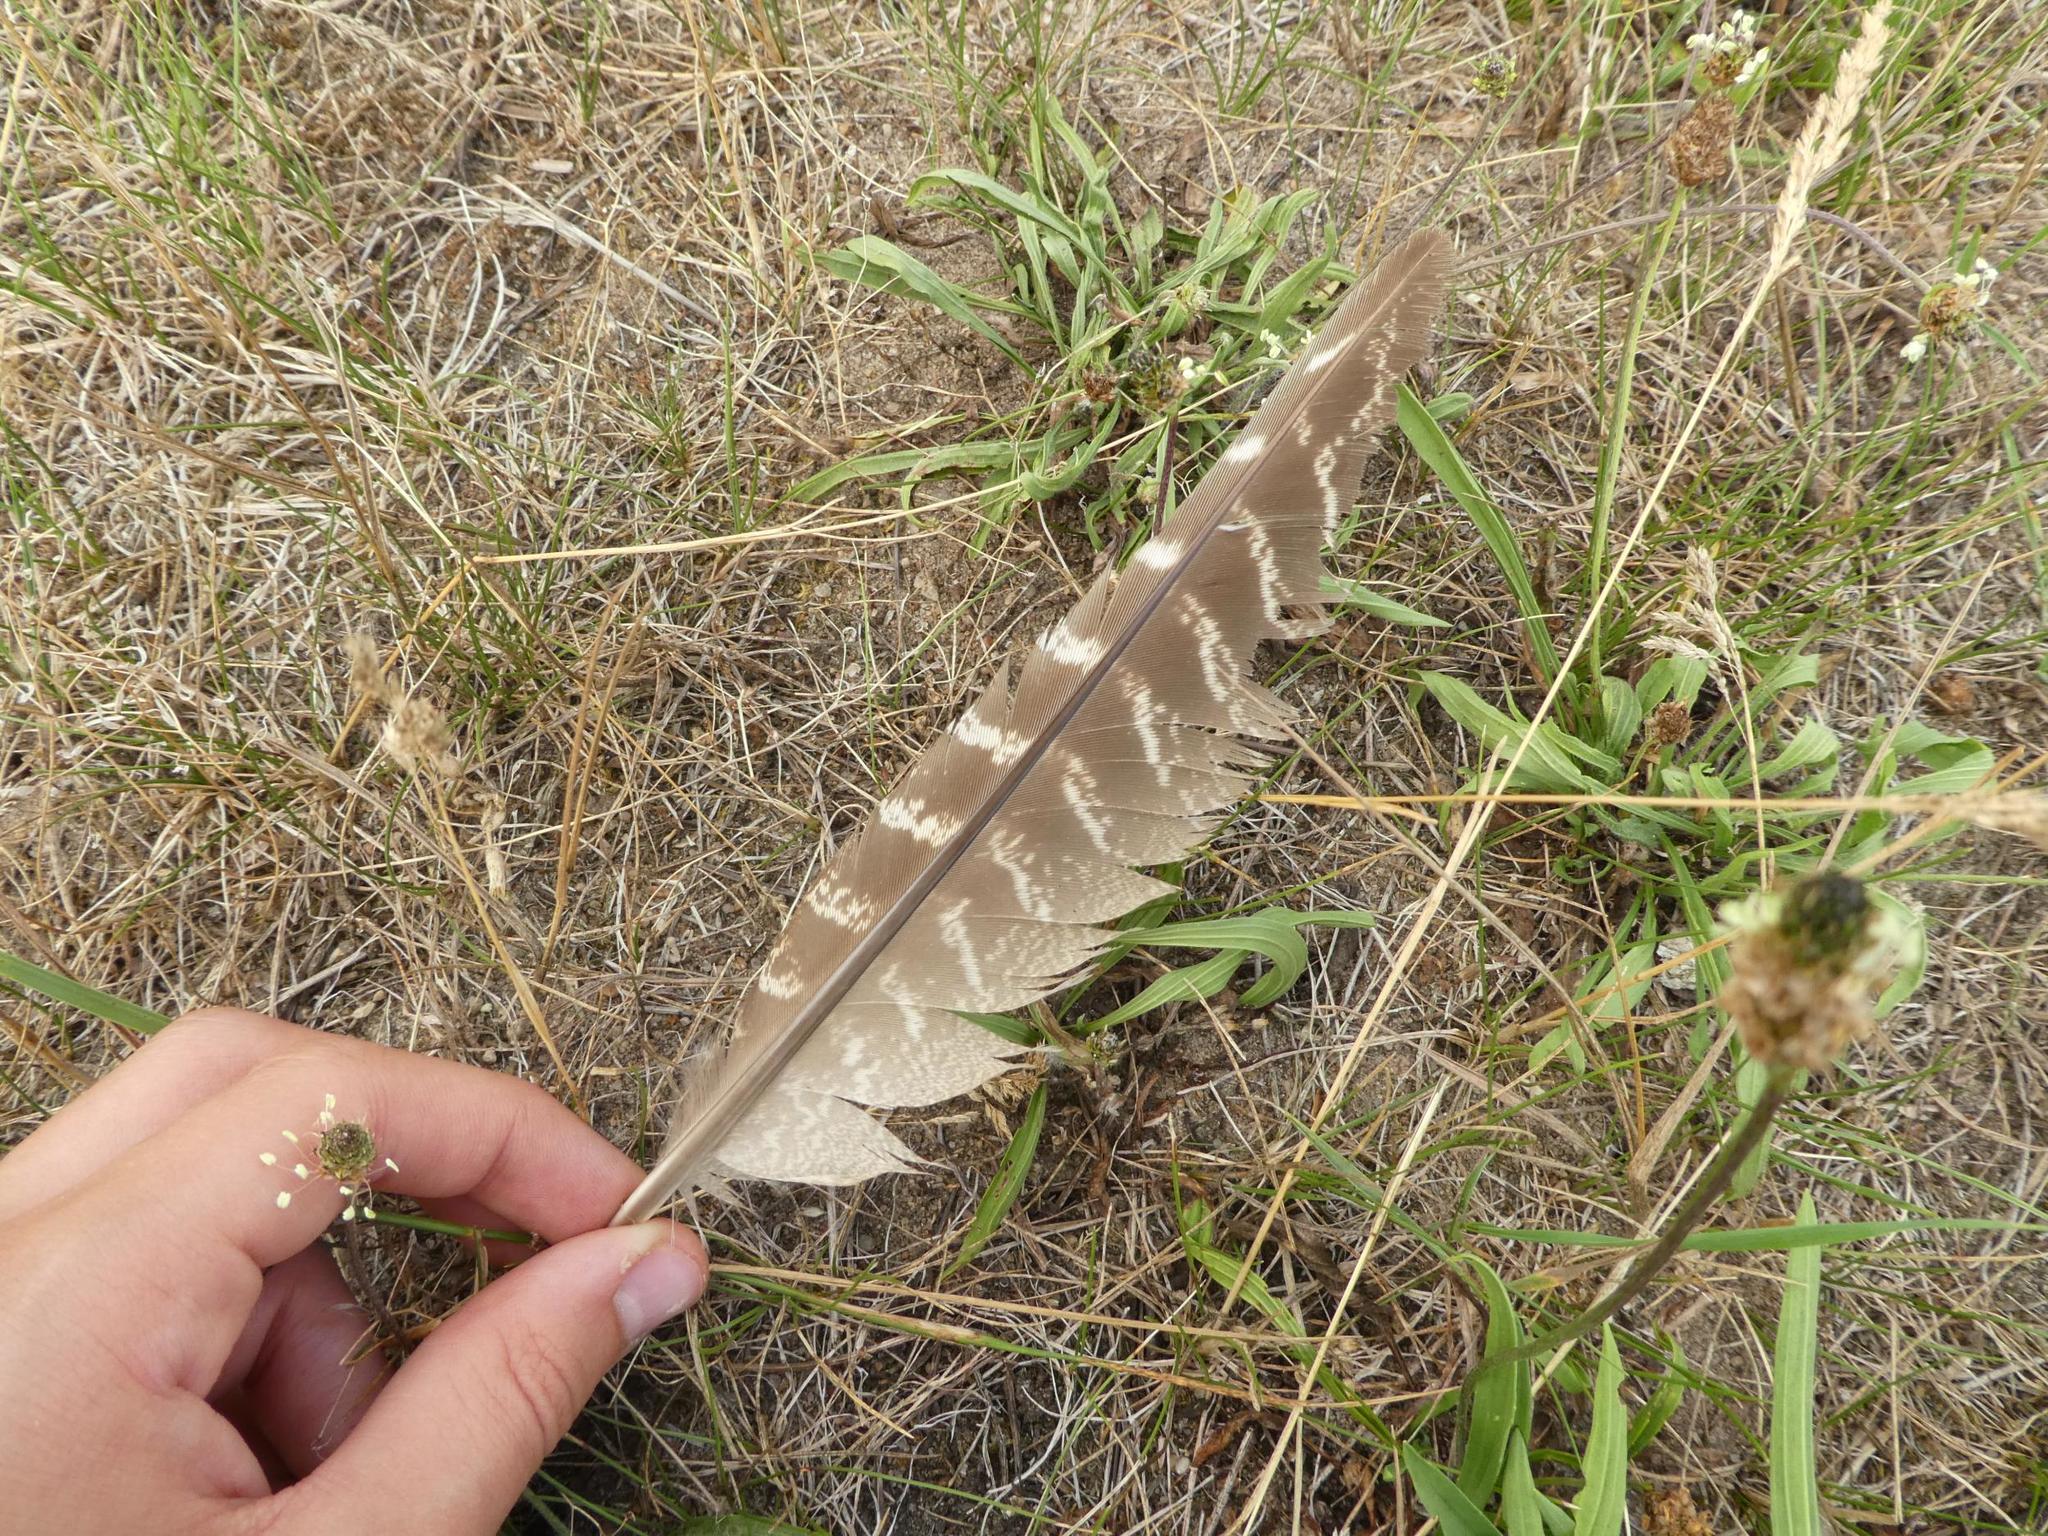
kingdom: Animalia
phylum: Chordata
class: Aves
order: Galliformes
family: Phasianidae
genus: Phasianus
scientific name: Phasianus colchicus
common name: Common pheasant
